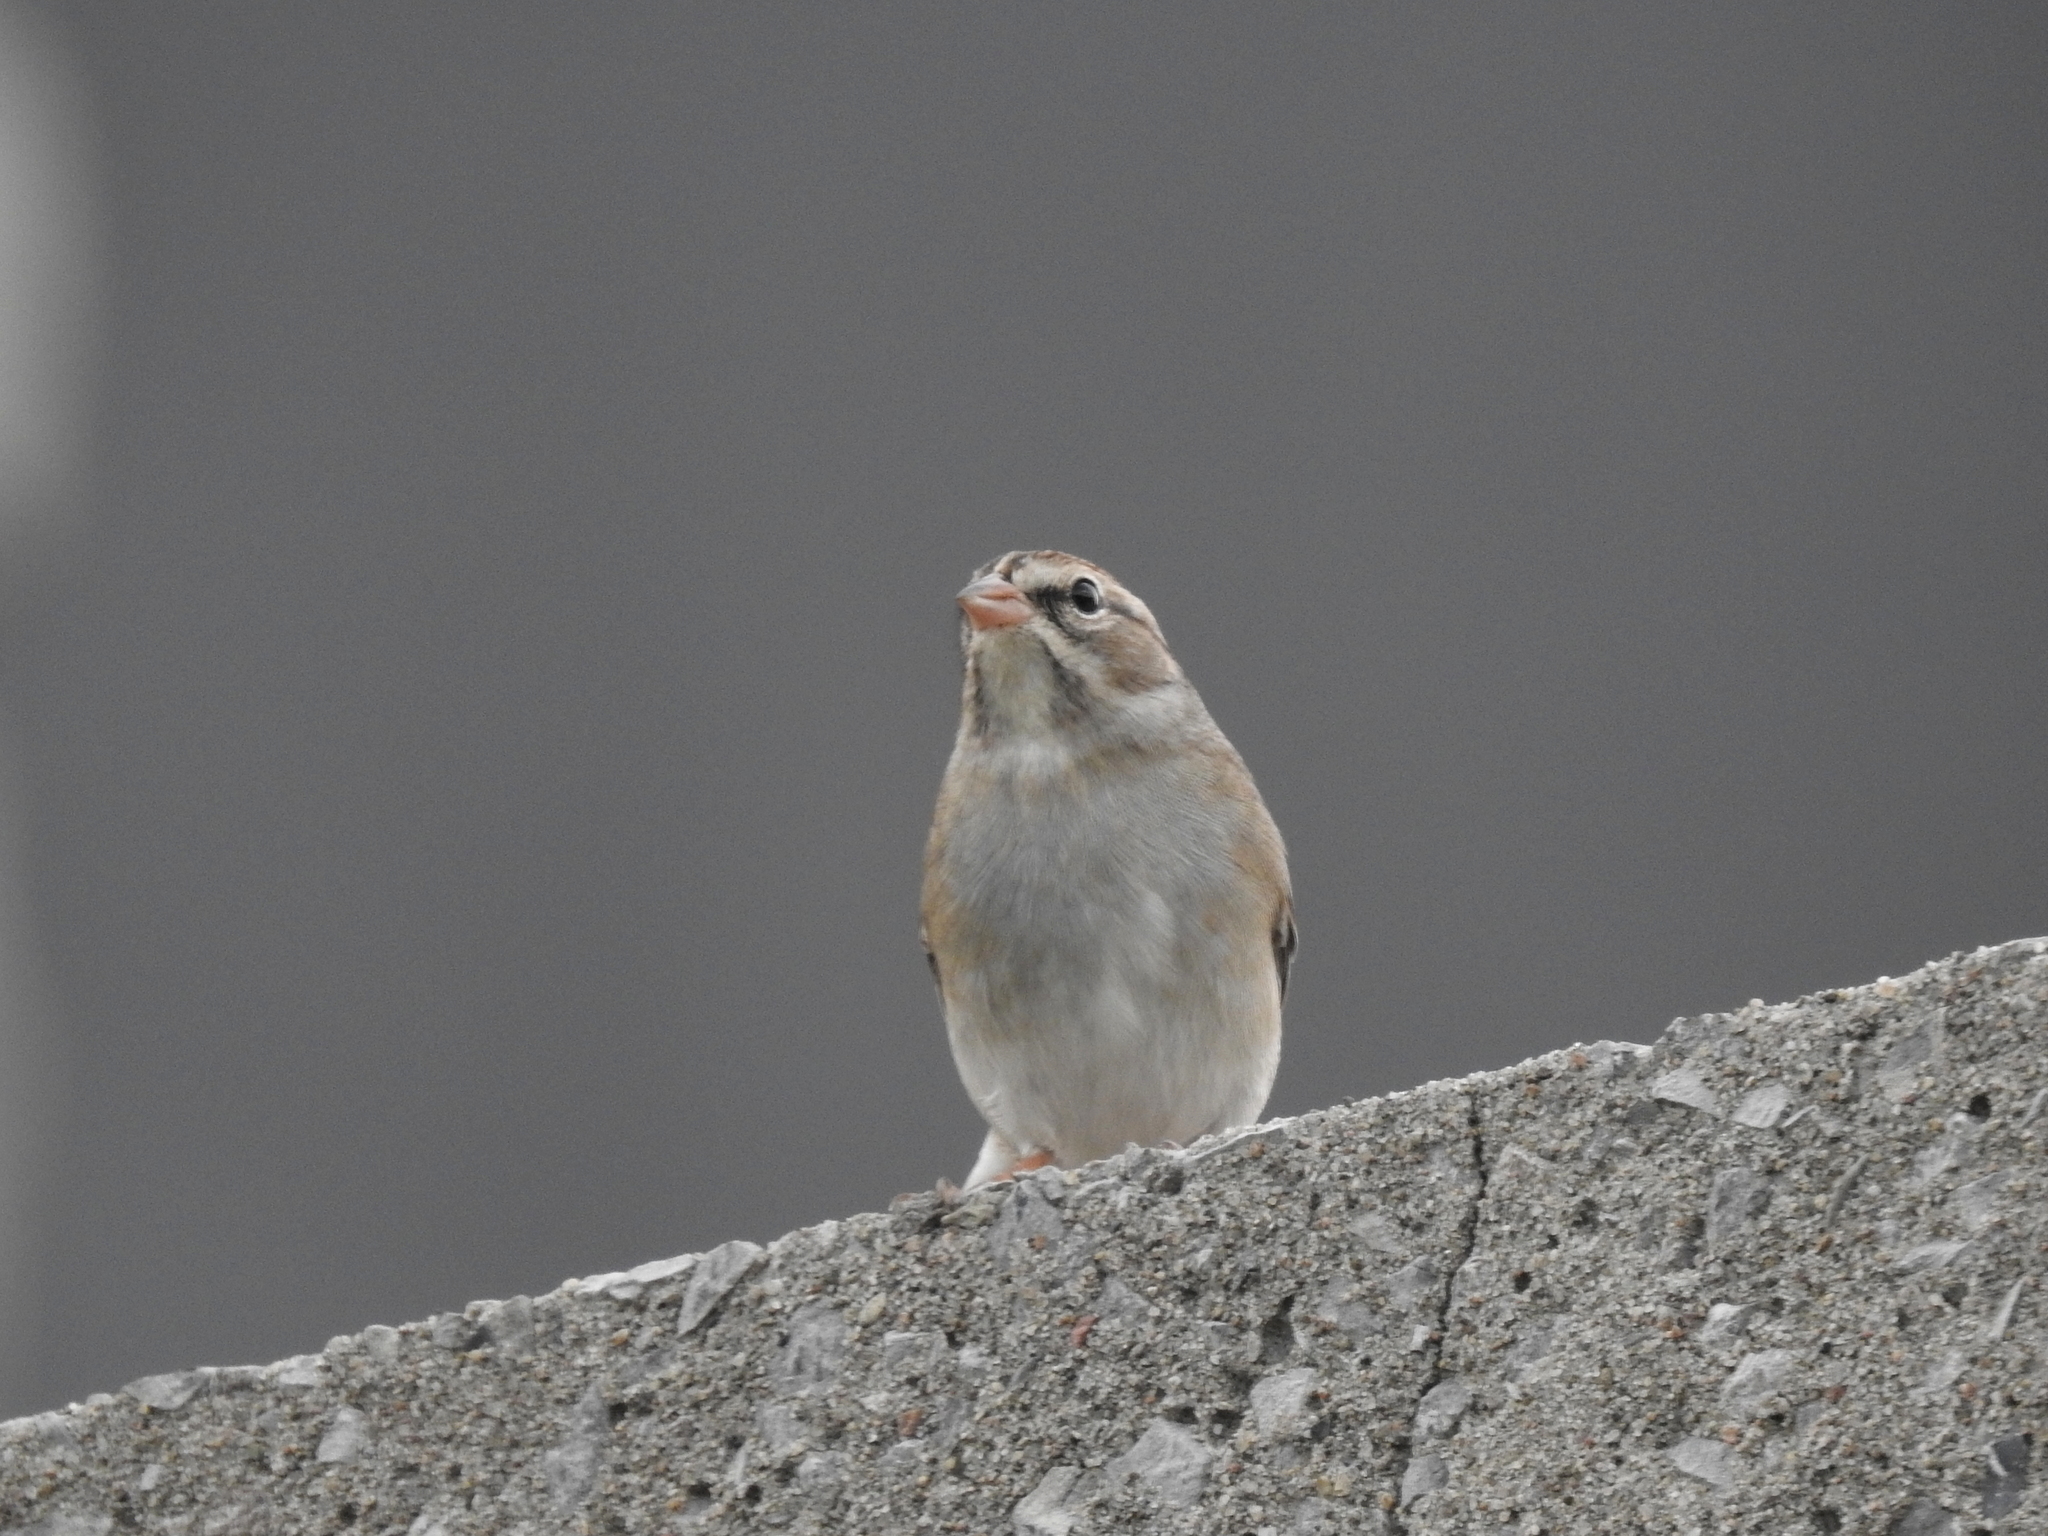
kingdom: Animalia
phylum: Chordata
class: Aves
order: Passeriformes
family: Passerellidae
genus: Spizella
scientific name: Spizella passerina
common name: Chipping sparrow
